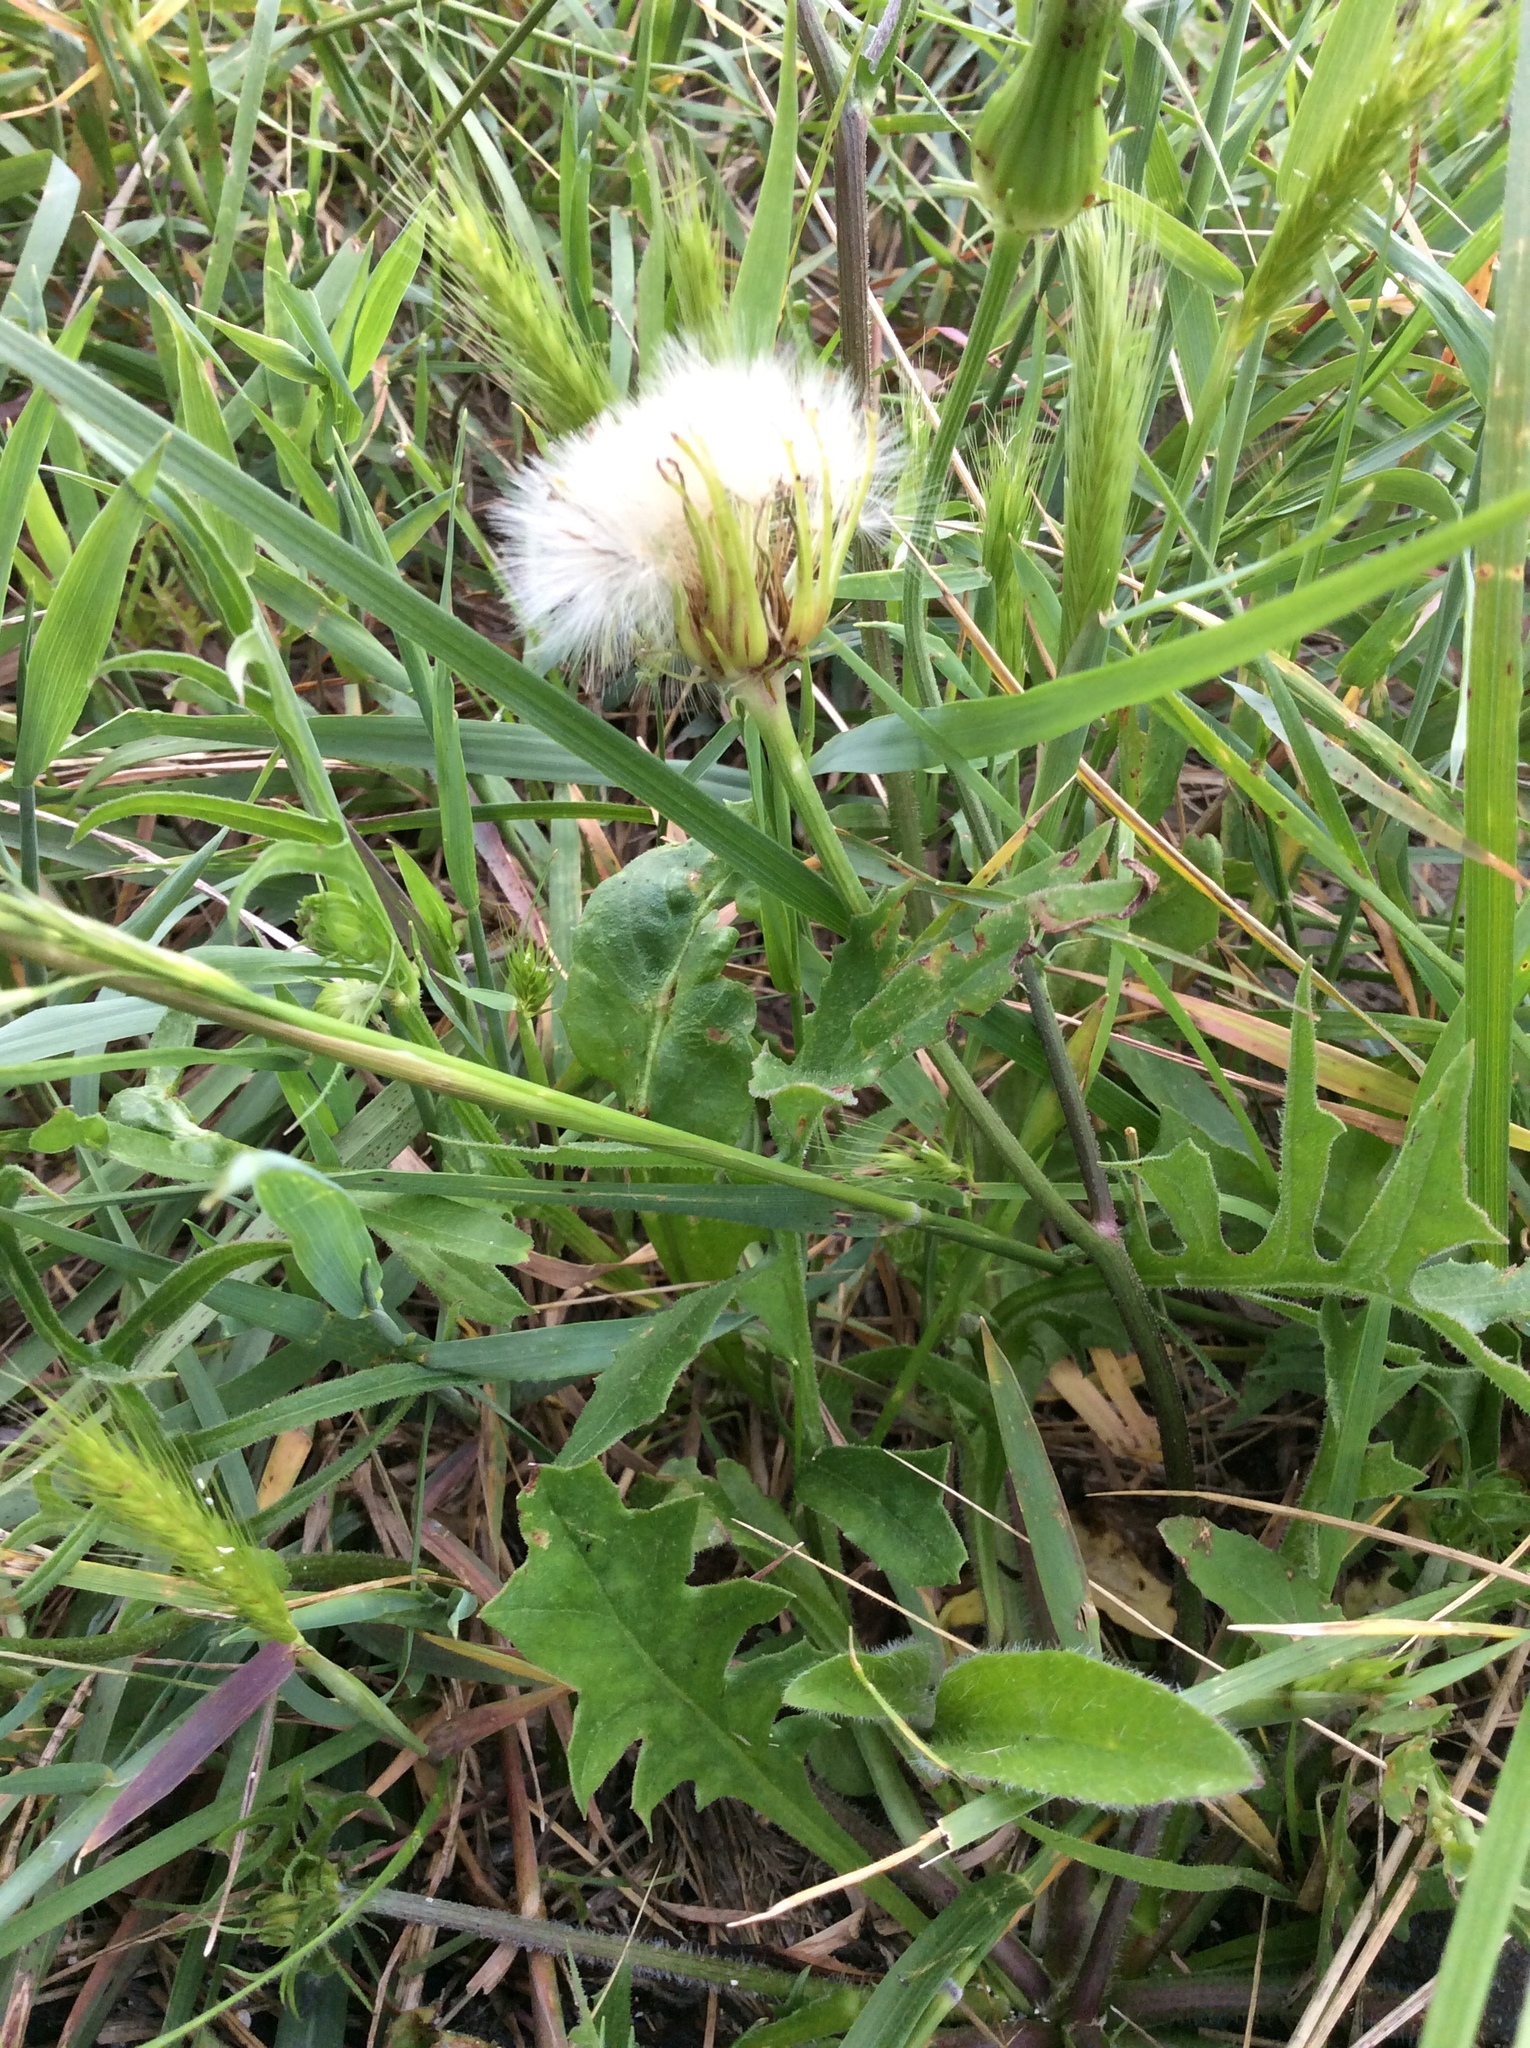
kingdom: Plantae
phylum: Tracheophyta
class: Magnoliopsida
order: Asterales
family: Asteraceae
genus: Pyrrhopappus
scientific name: Pyrrhopappus pauciflorus
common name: Texas false dandelion
